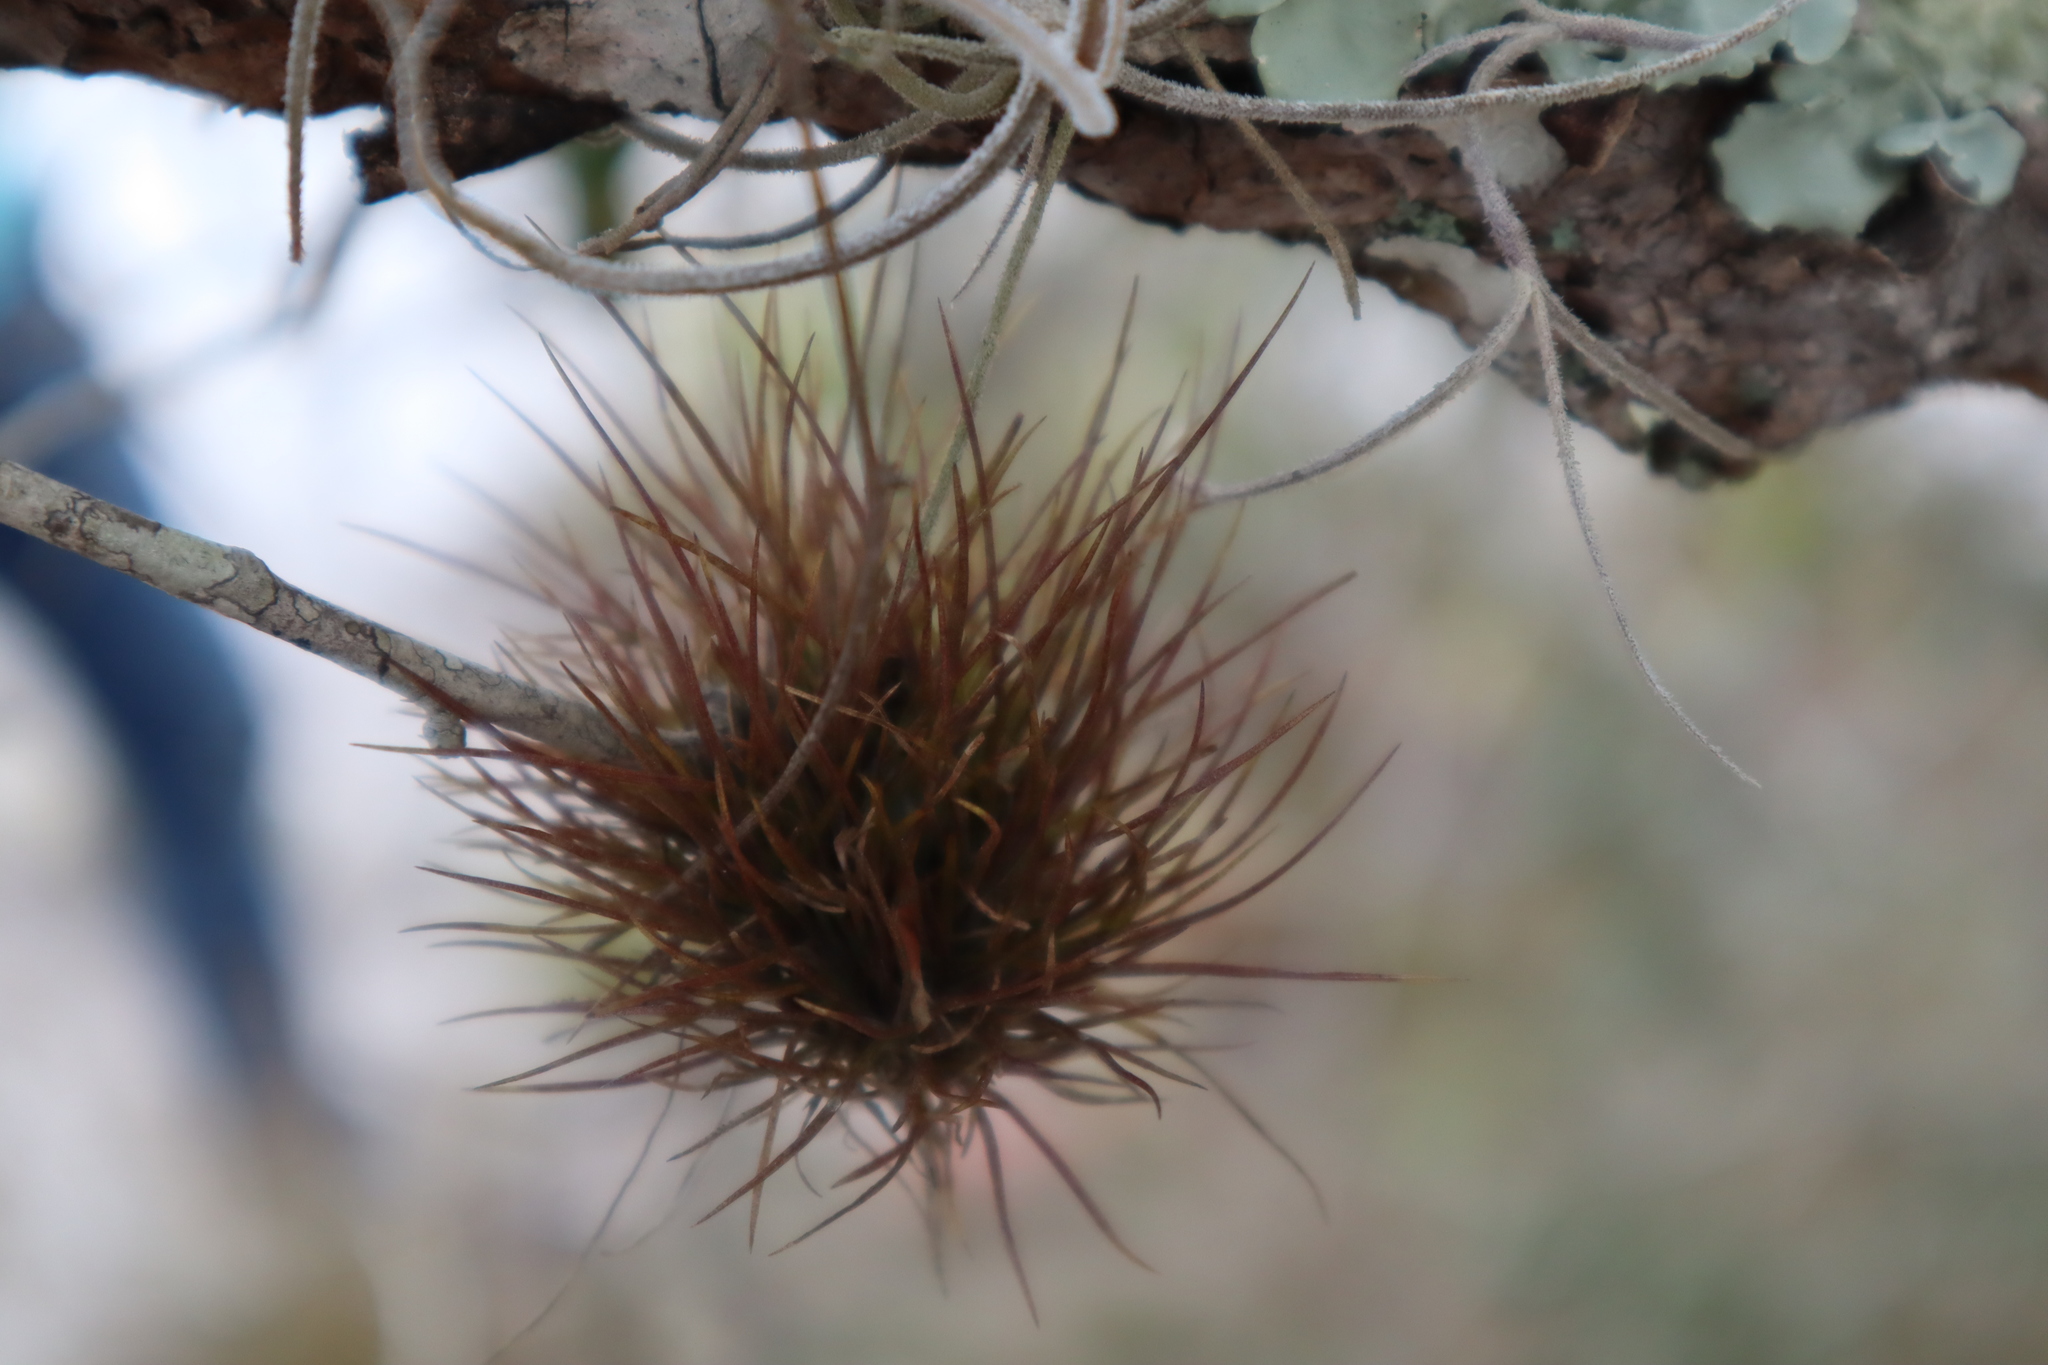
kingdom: Plantae
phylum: Tracheophyta
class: Liliopsida
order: Poales
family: Bromeliaceae
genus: Tillandsia
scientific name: Tillandsia setacea
